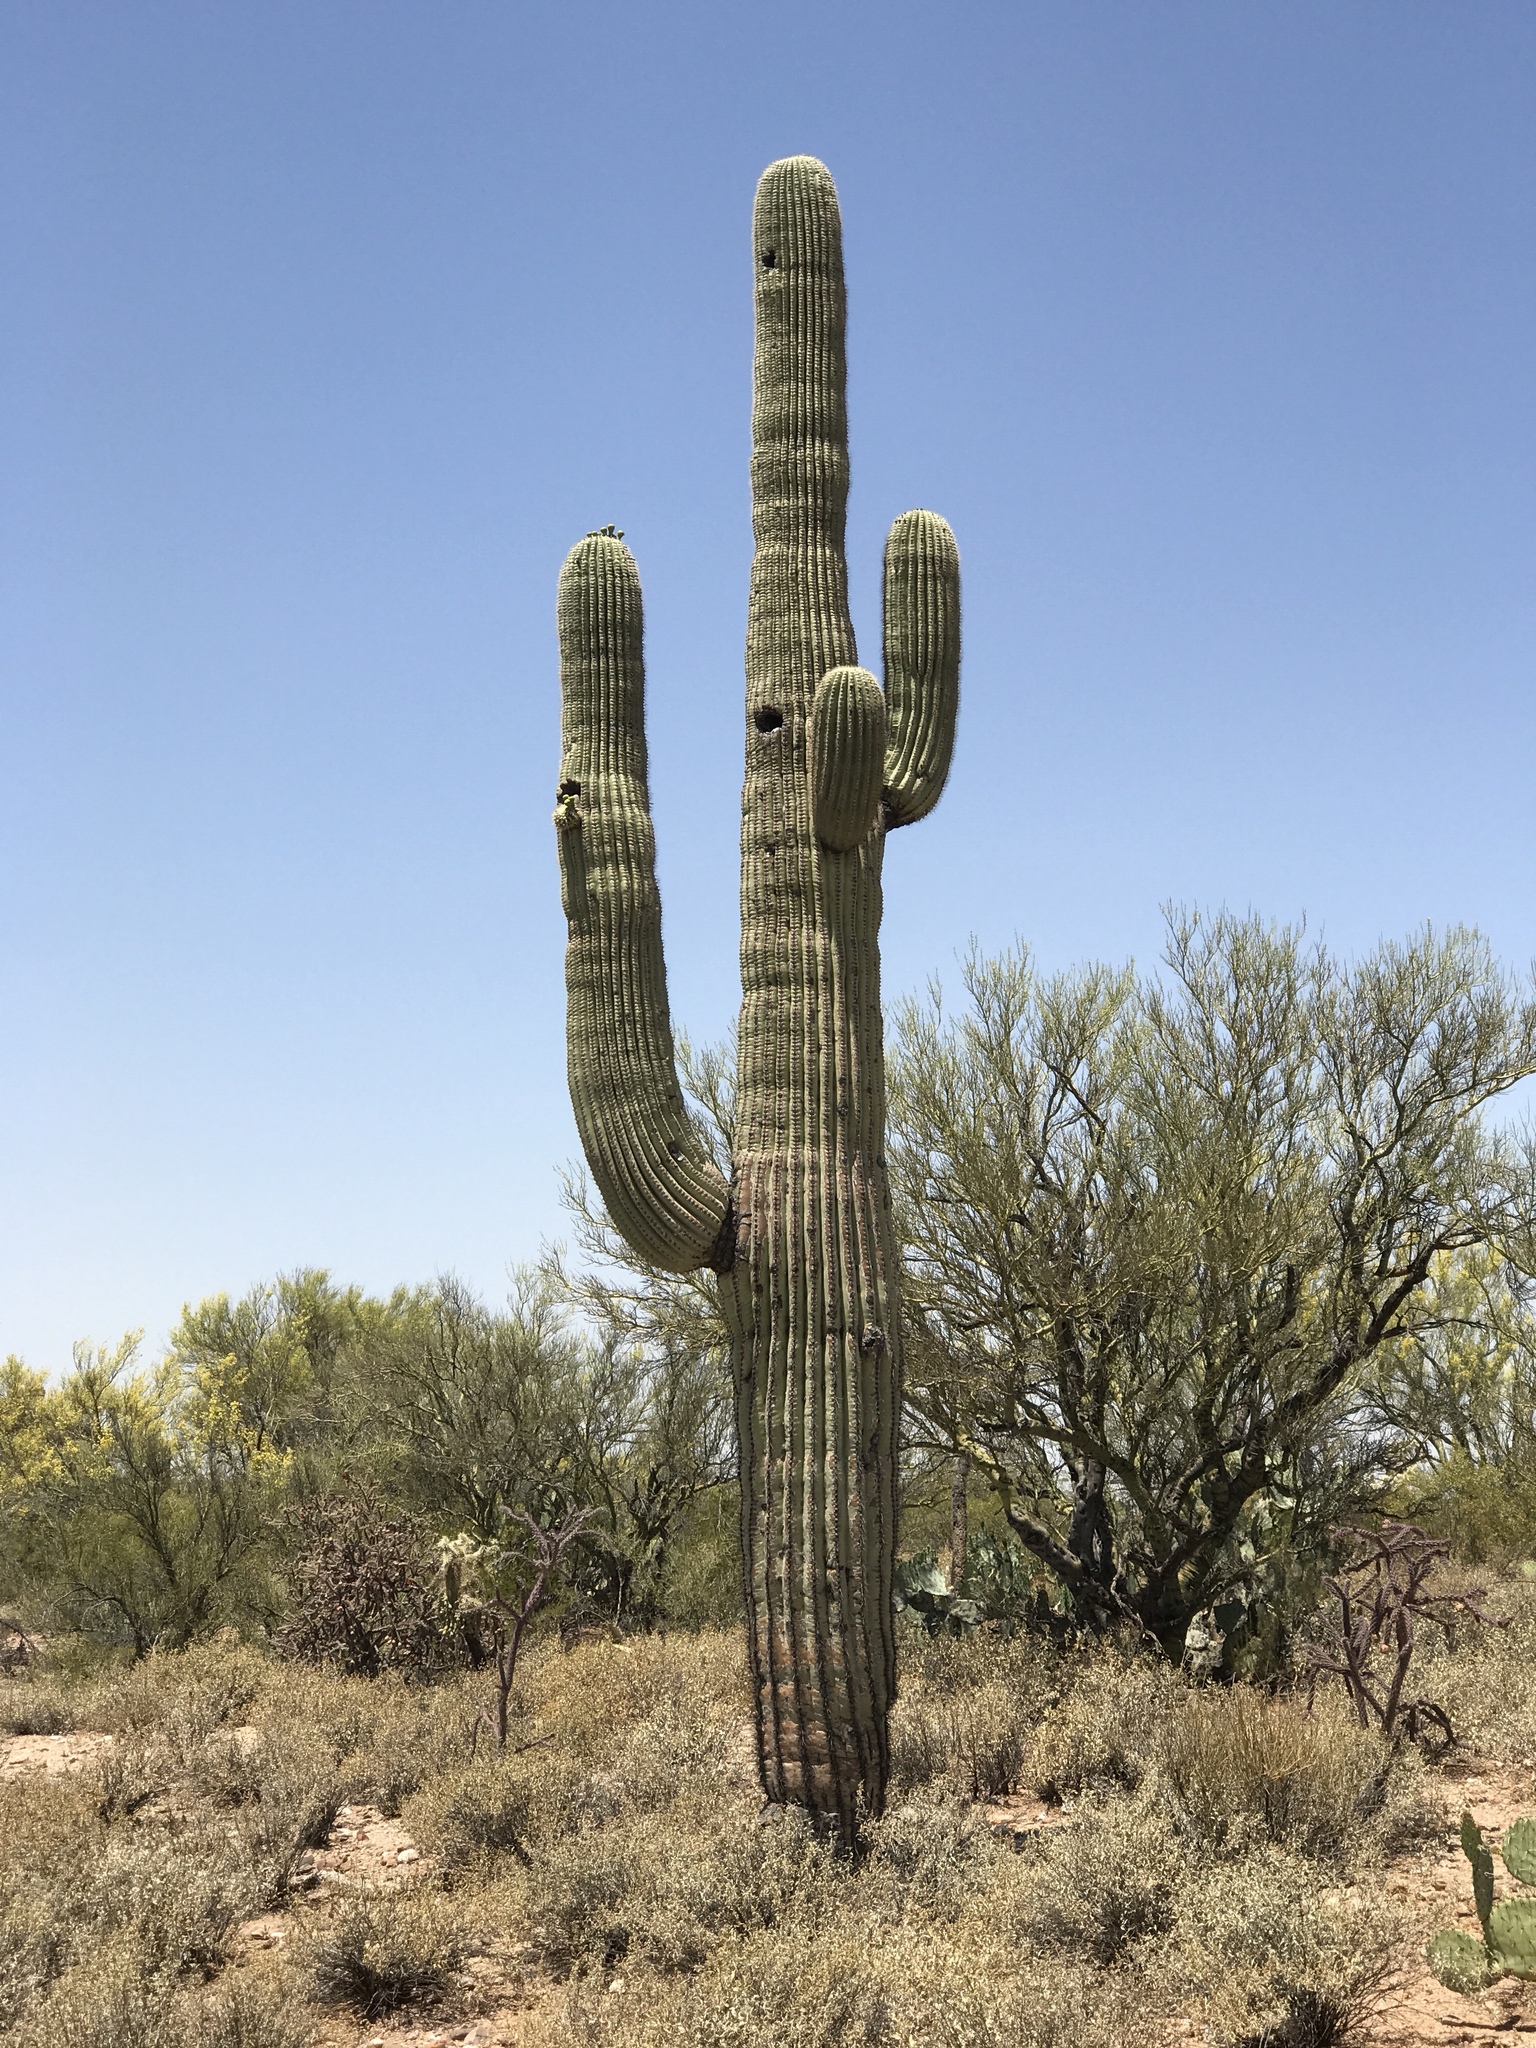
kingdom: Plantae
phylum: Tracheophyta
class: Magnoliopsida
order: Caryophyllales
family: Cactaceae
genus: Carnegiea
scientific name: Carnegiea gigantea
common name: Saguaro
